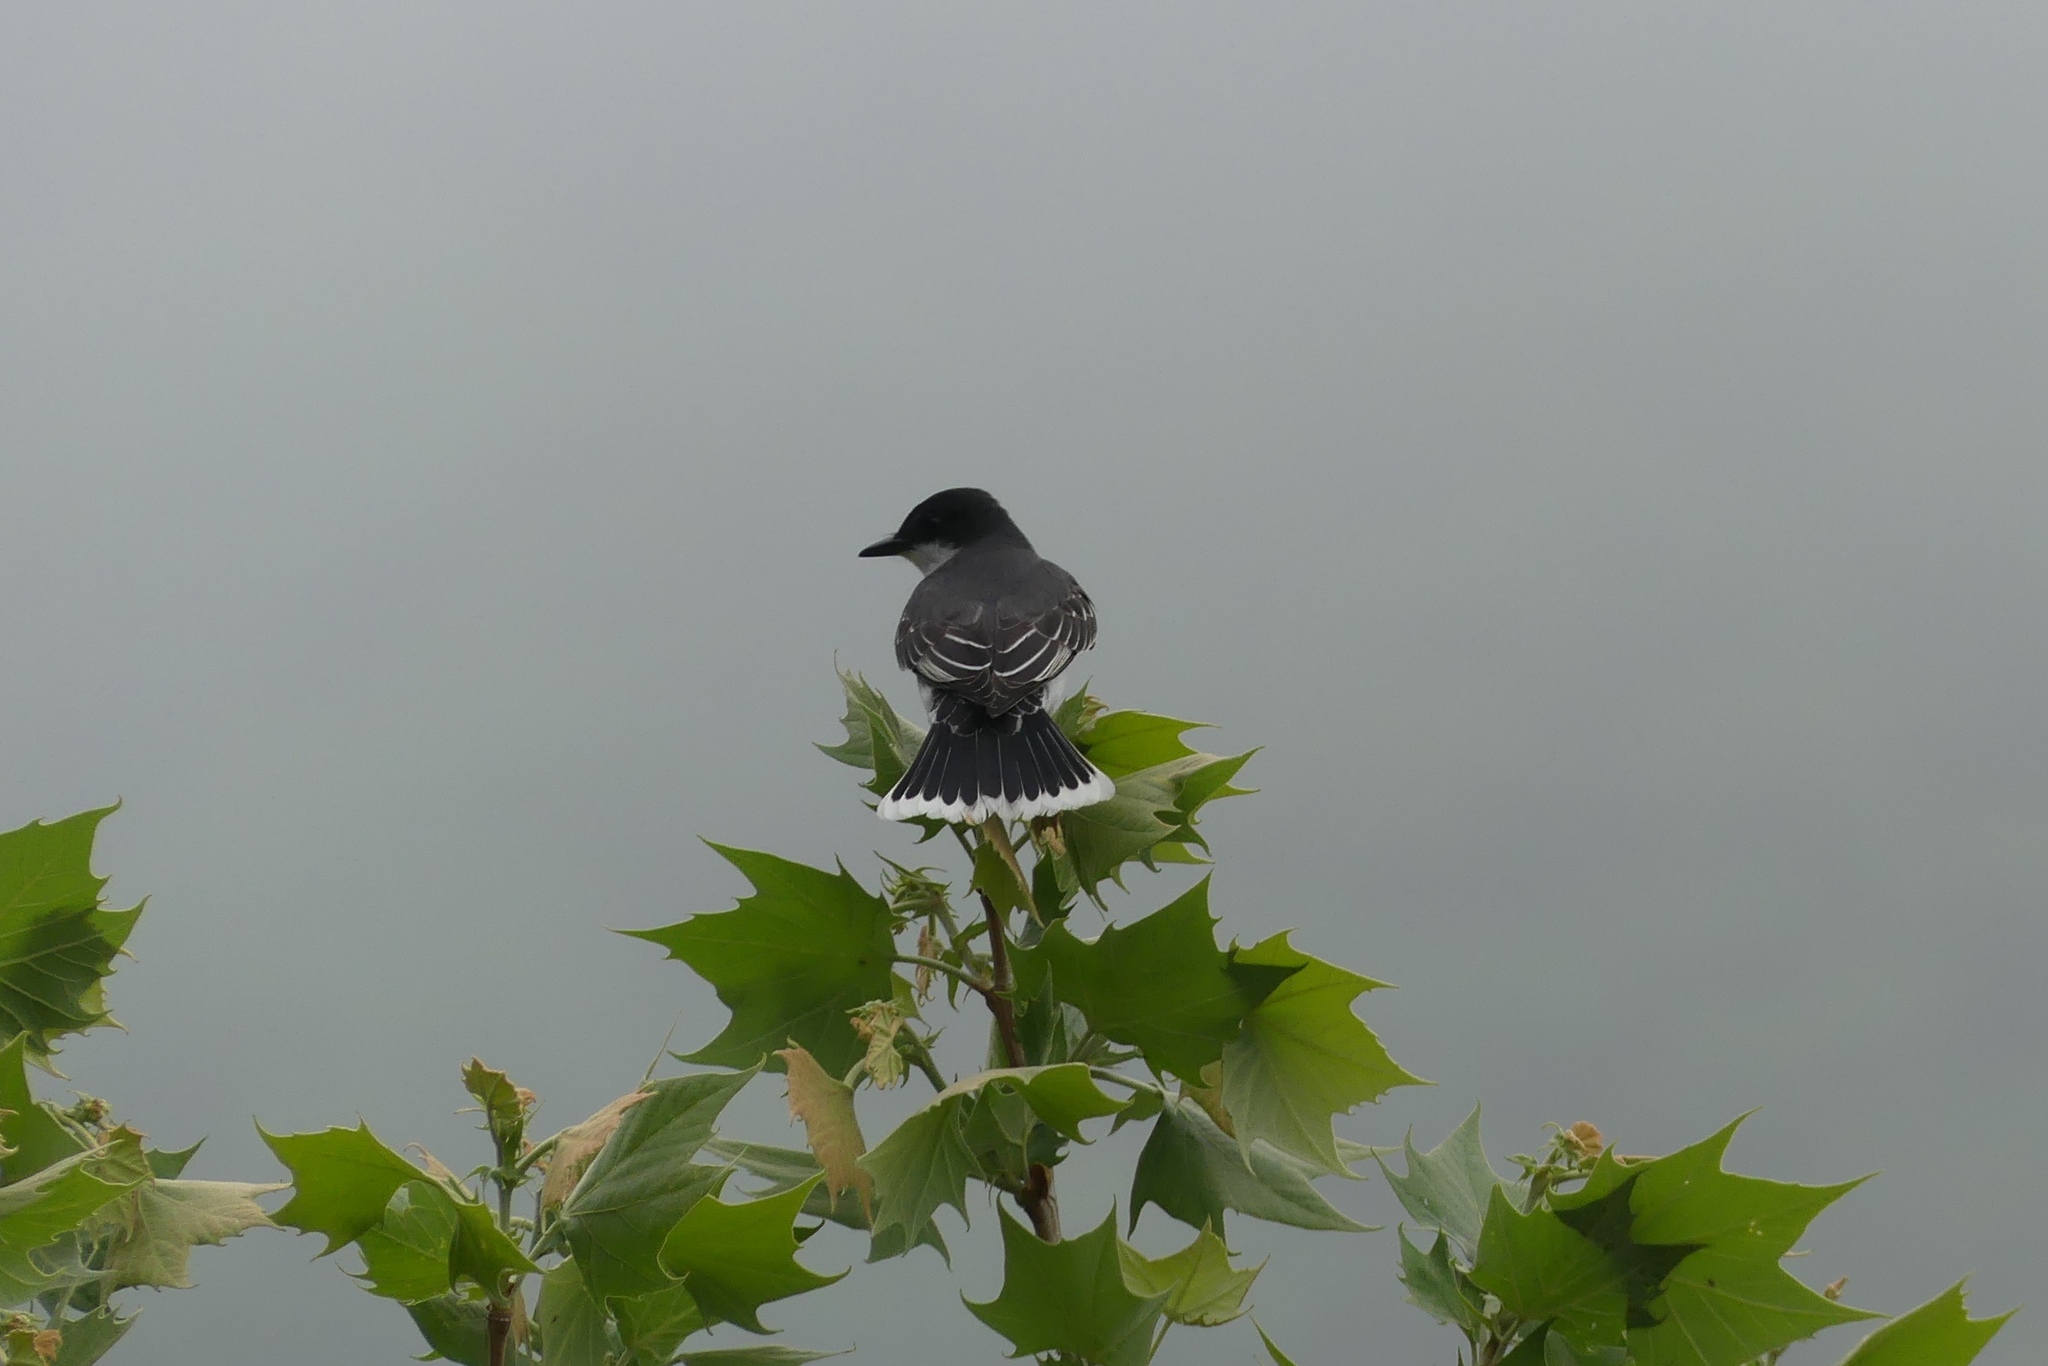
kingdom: Animalia
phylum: Chordata
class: Aves
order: Passeriformes
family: Tyrannidae
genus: Tyrannus
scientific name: Tyrannus tyrannus
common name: Eastern kingbird
